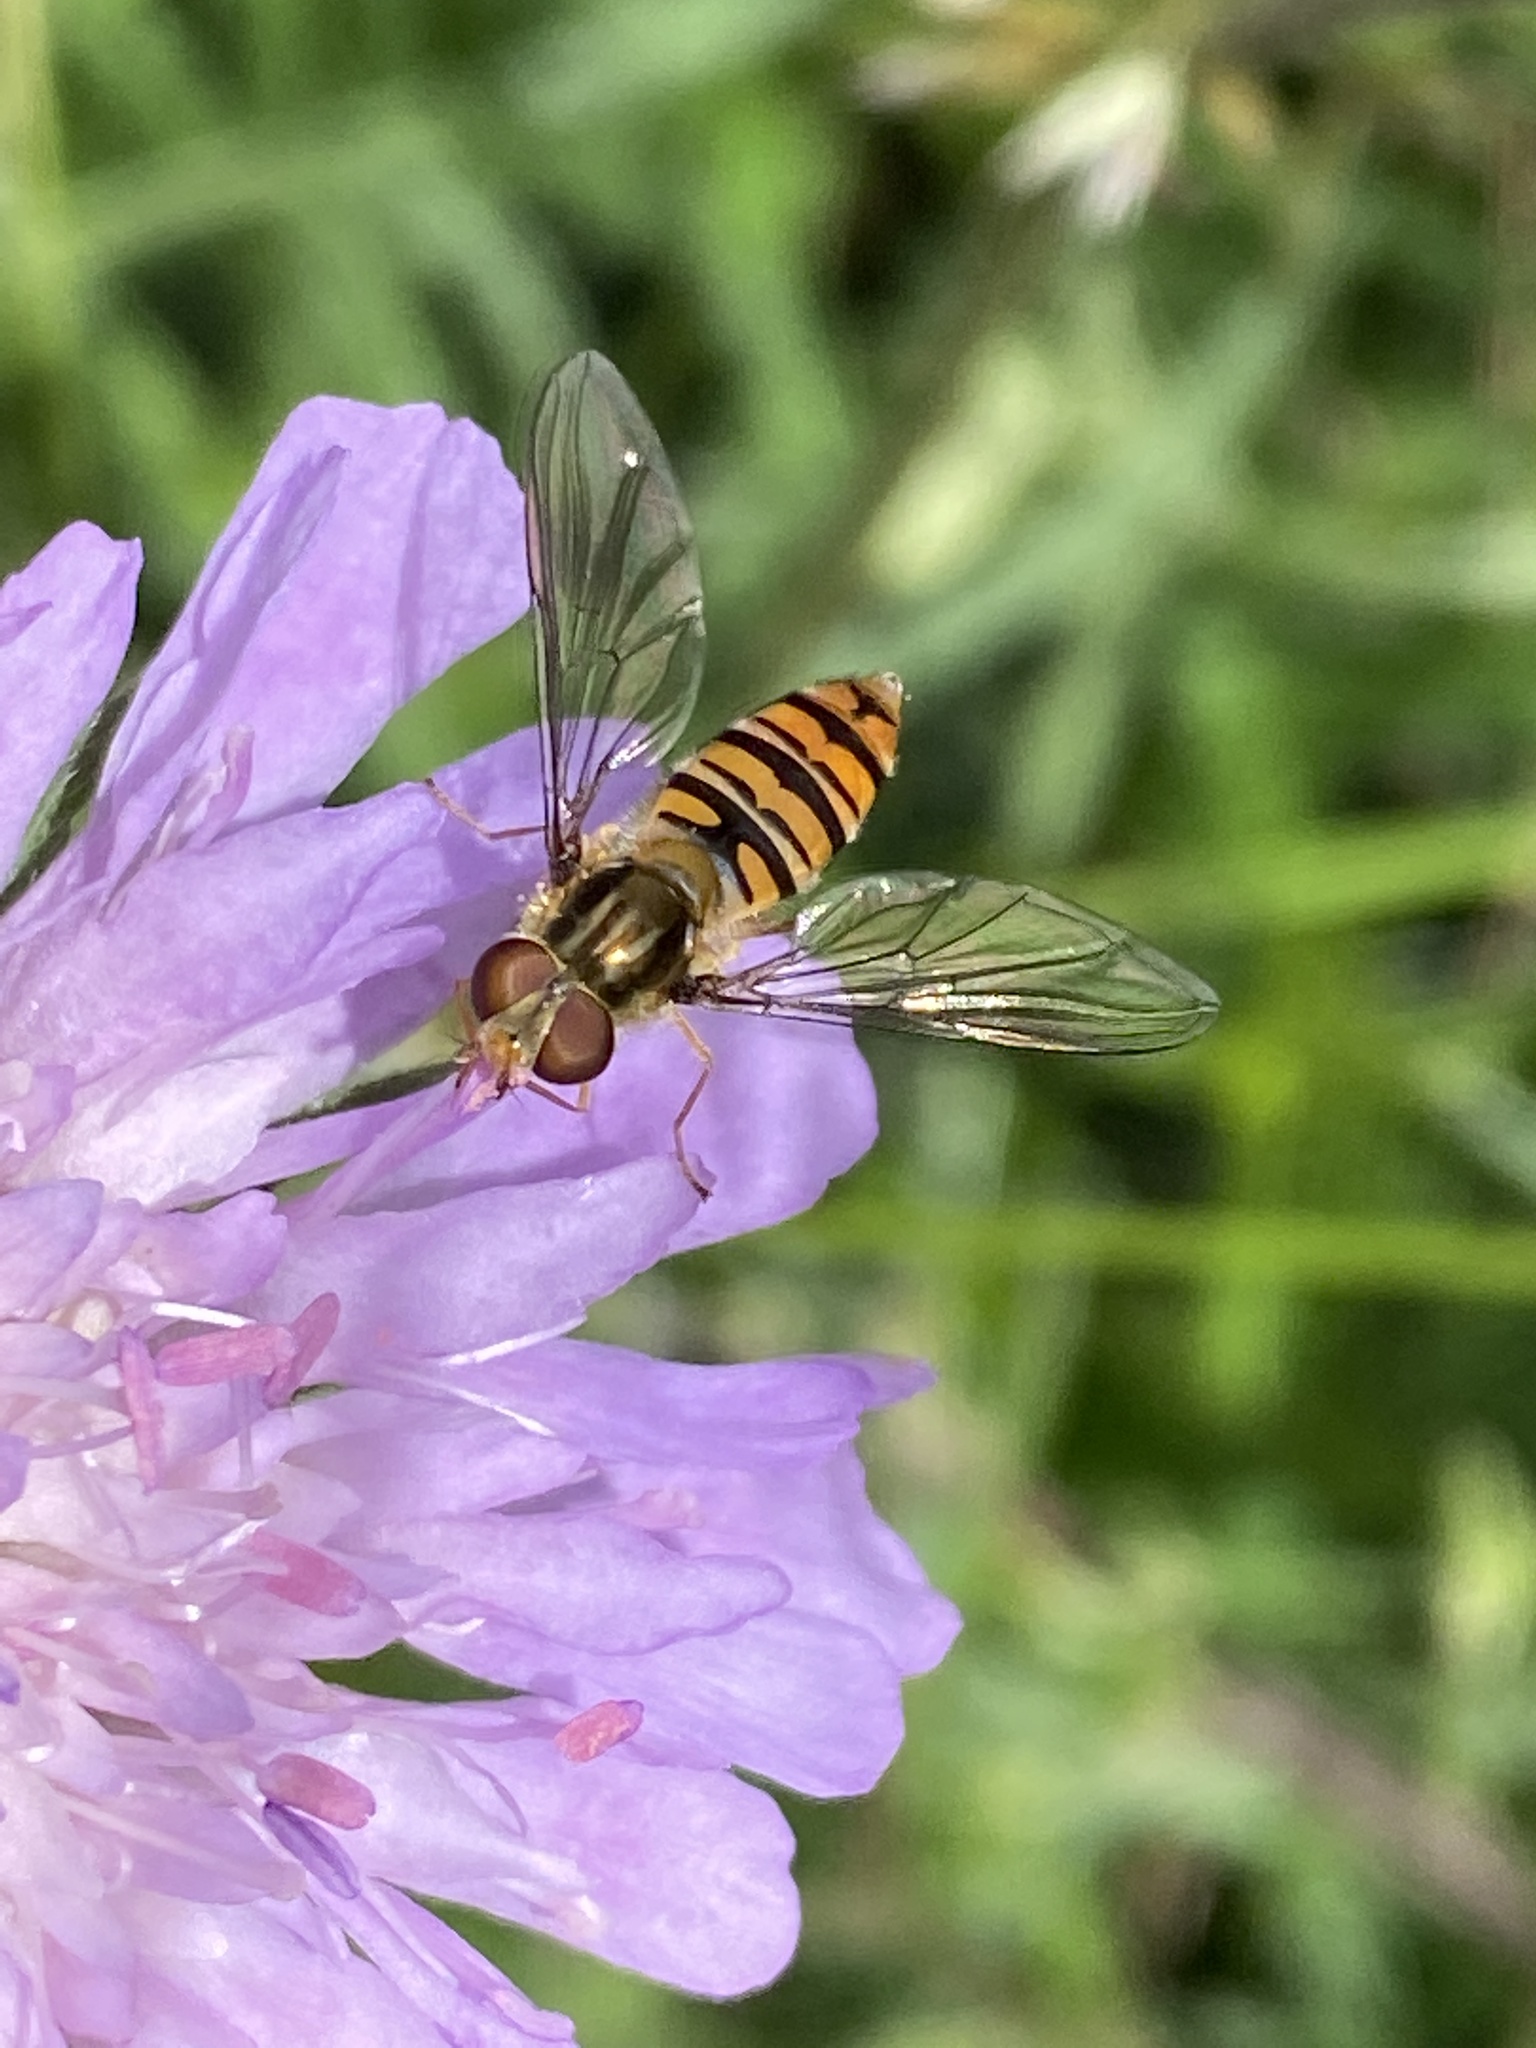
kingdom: Animalia
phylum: Arthropoda
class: Insecta
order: Diptera
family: Syrphidae
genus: Episyrphus
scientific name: Episyrphus balteatus
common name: Marmalade hoverfly
